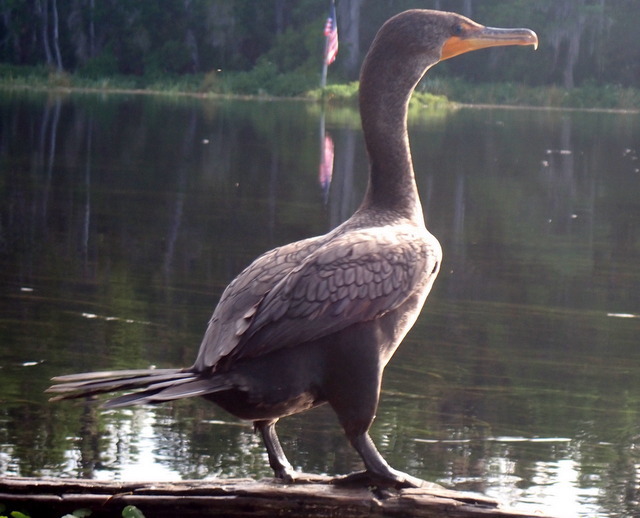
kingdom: Animalia
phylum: Chordata
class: Aves
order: Suliformes
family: Phalacrocoracidae
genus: Phalacrocorax
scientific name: Phalacrocorax auritus
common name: Double-crested cormorant
